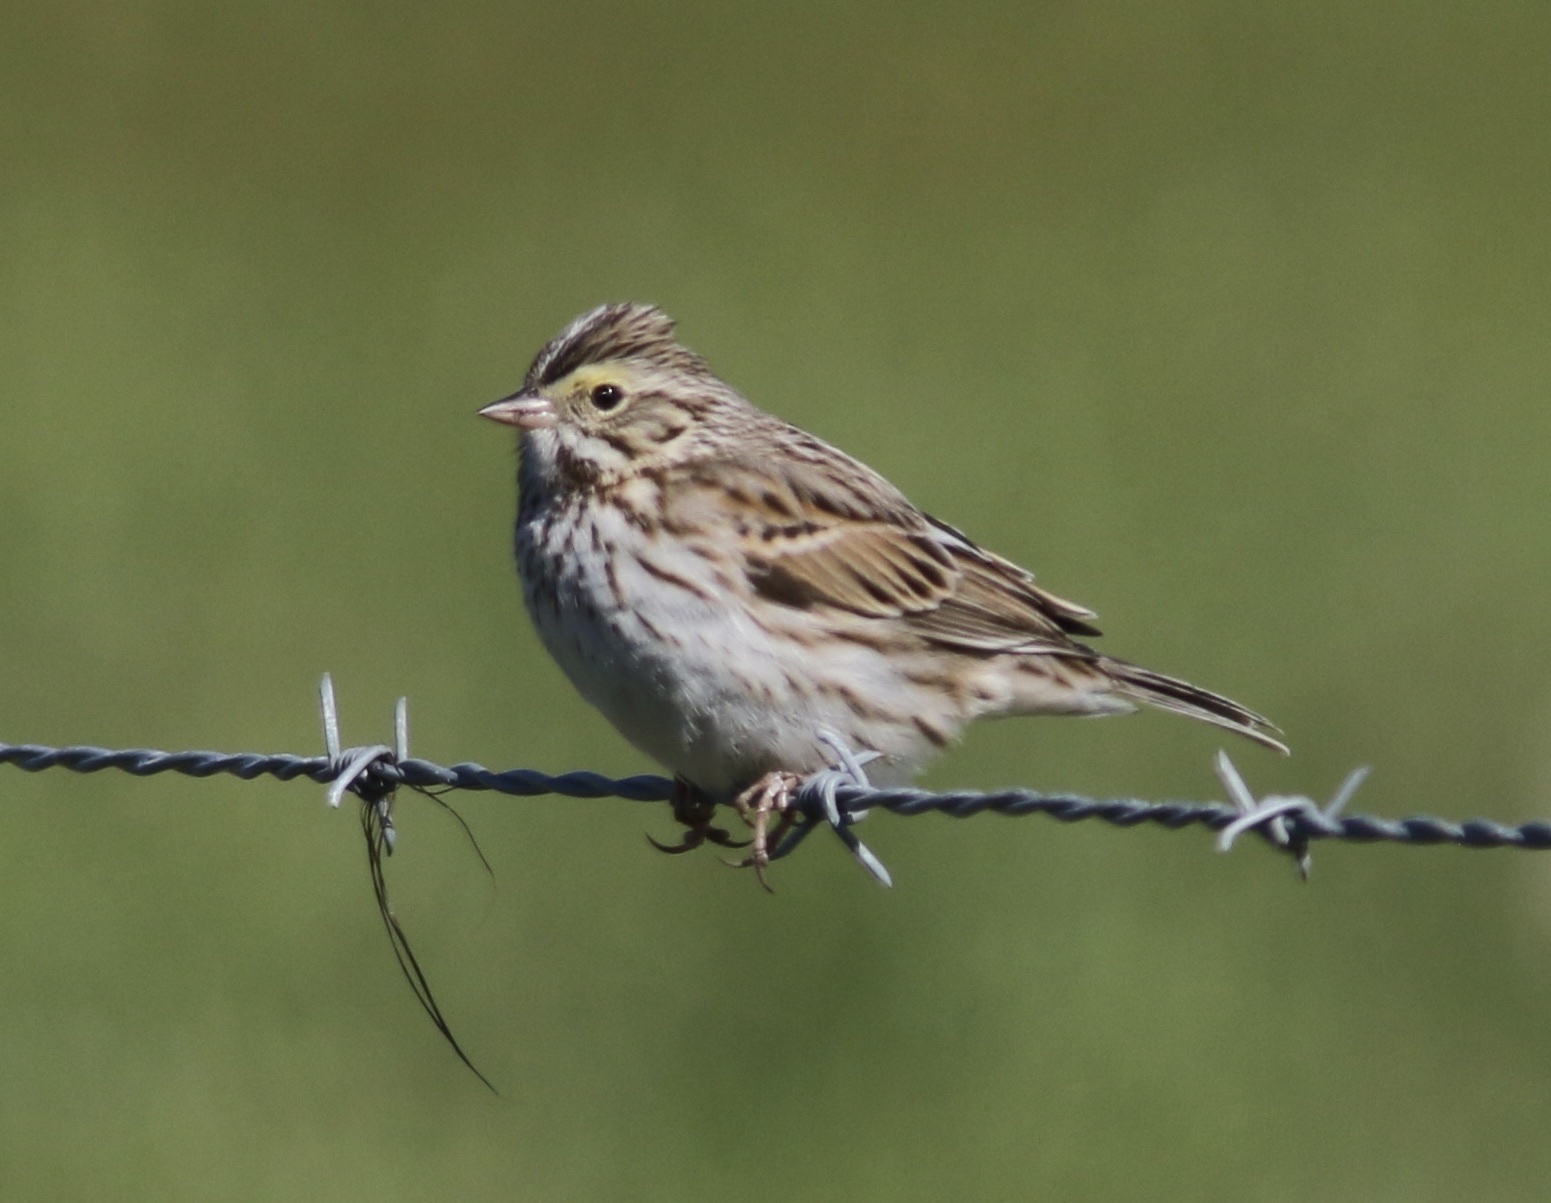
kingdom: Animalia
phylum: Chordata
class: Aves
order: Passeriformes
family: Passerellidae
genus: Passerculus
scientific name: Passerculus sandwichensis
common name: Savannah sparrow
